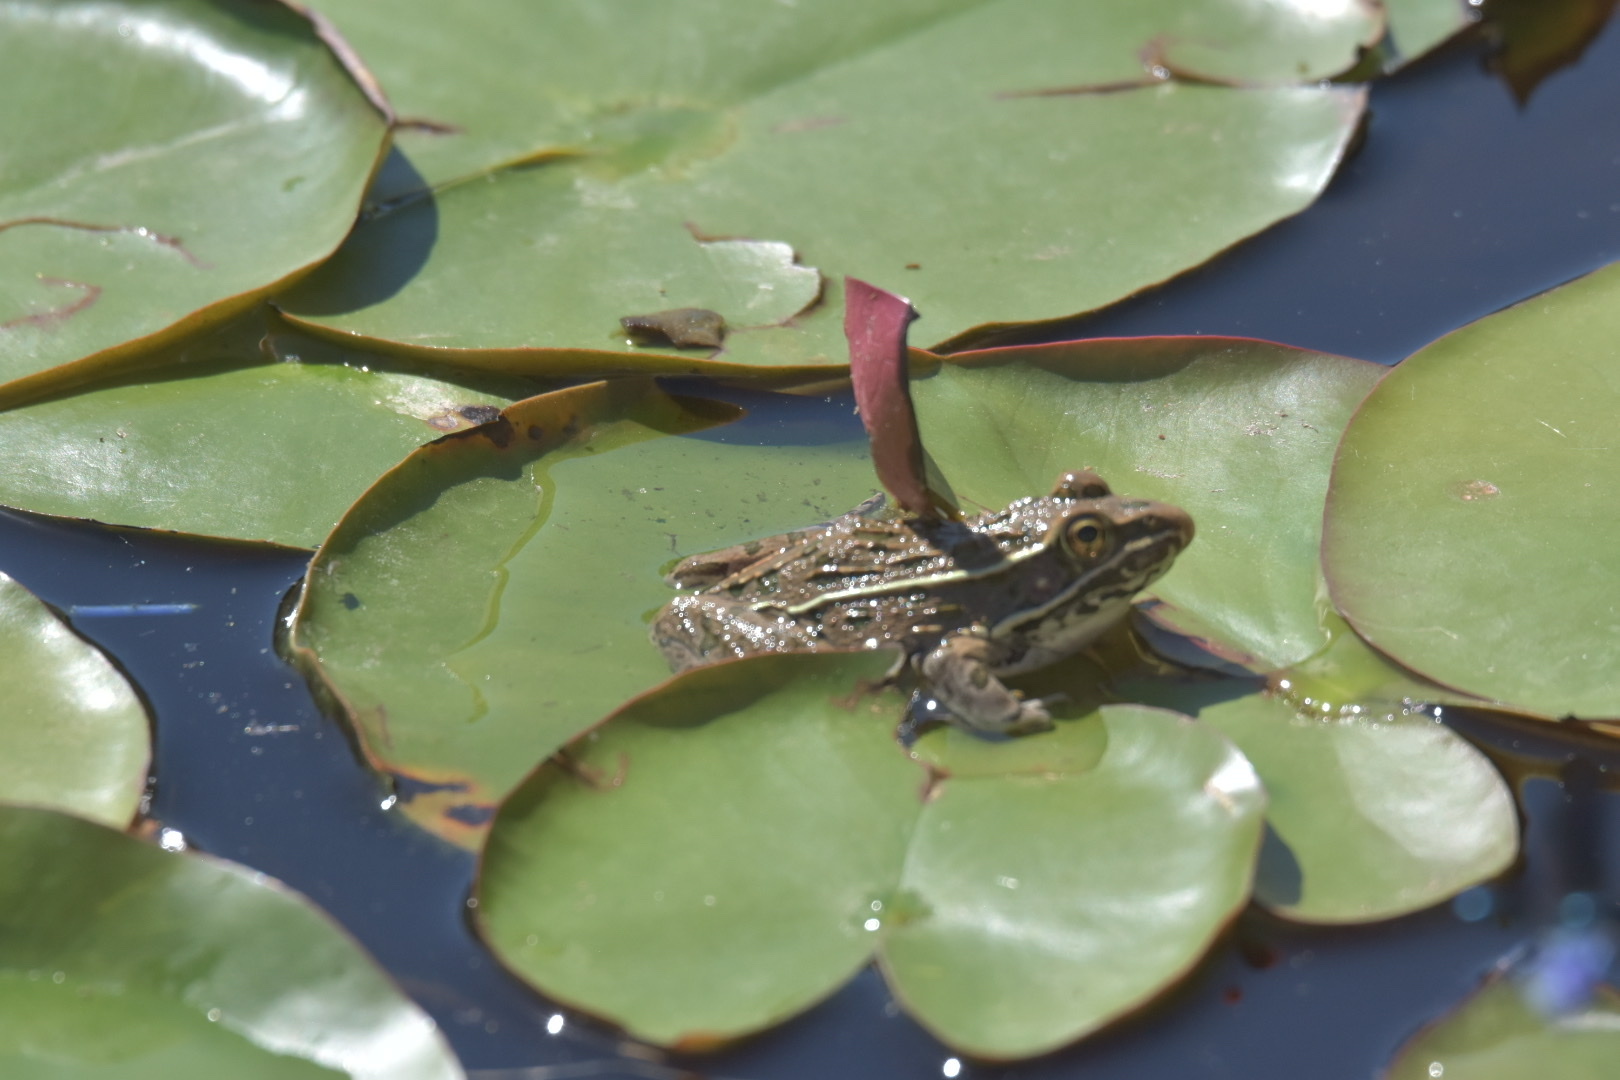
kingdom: Animalia
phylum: Chordata
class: Amphibia
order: Anura
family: Ranidae
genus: Lithobates
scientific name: Lithobates blairi
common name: Plains leopard frog
